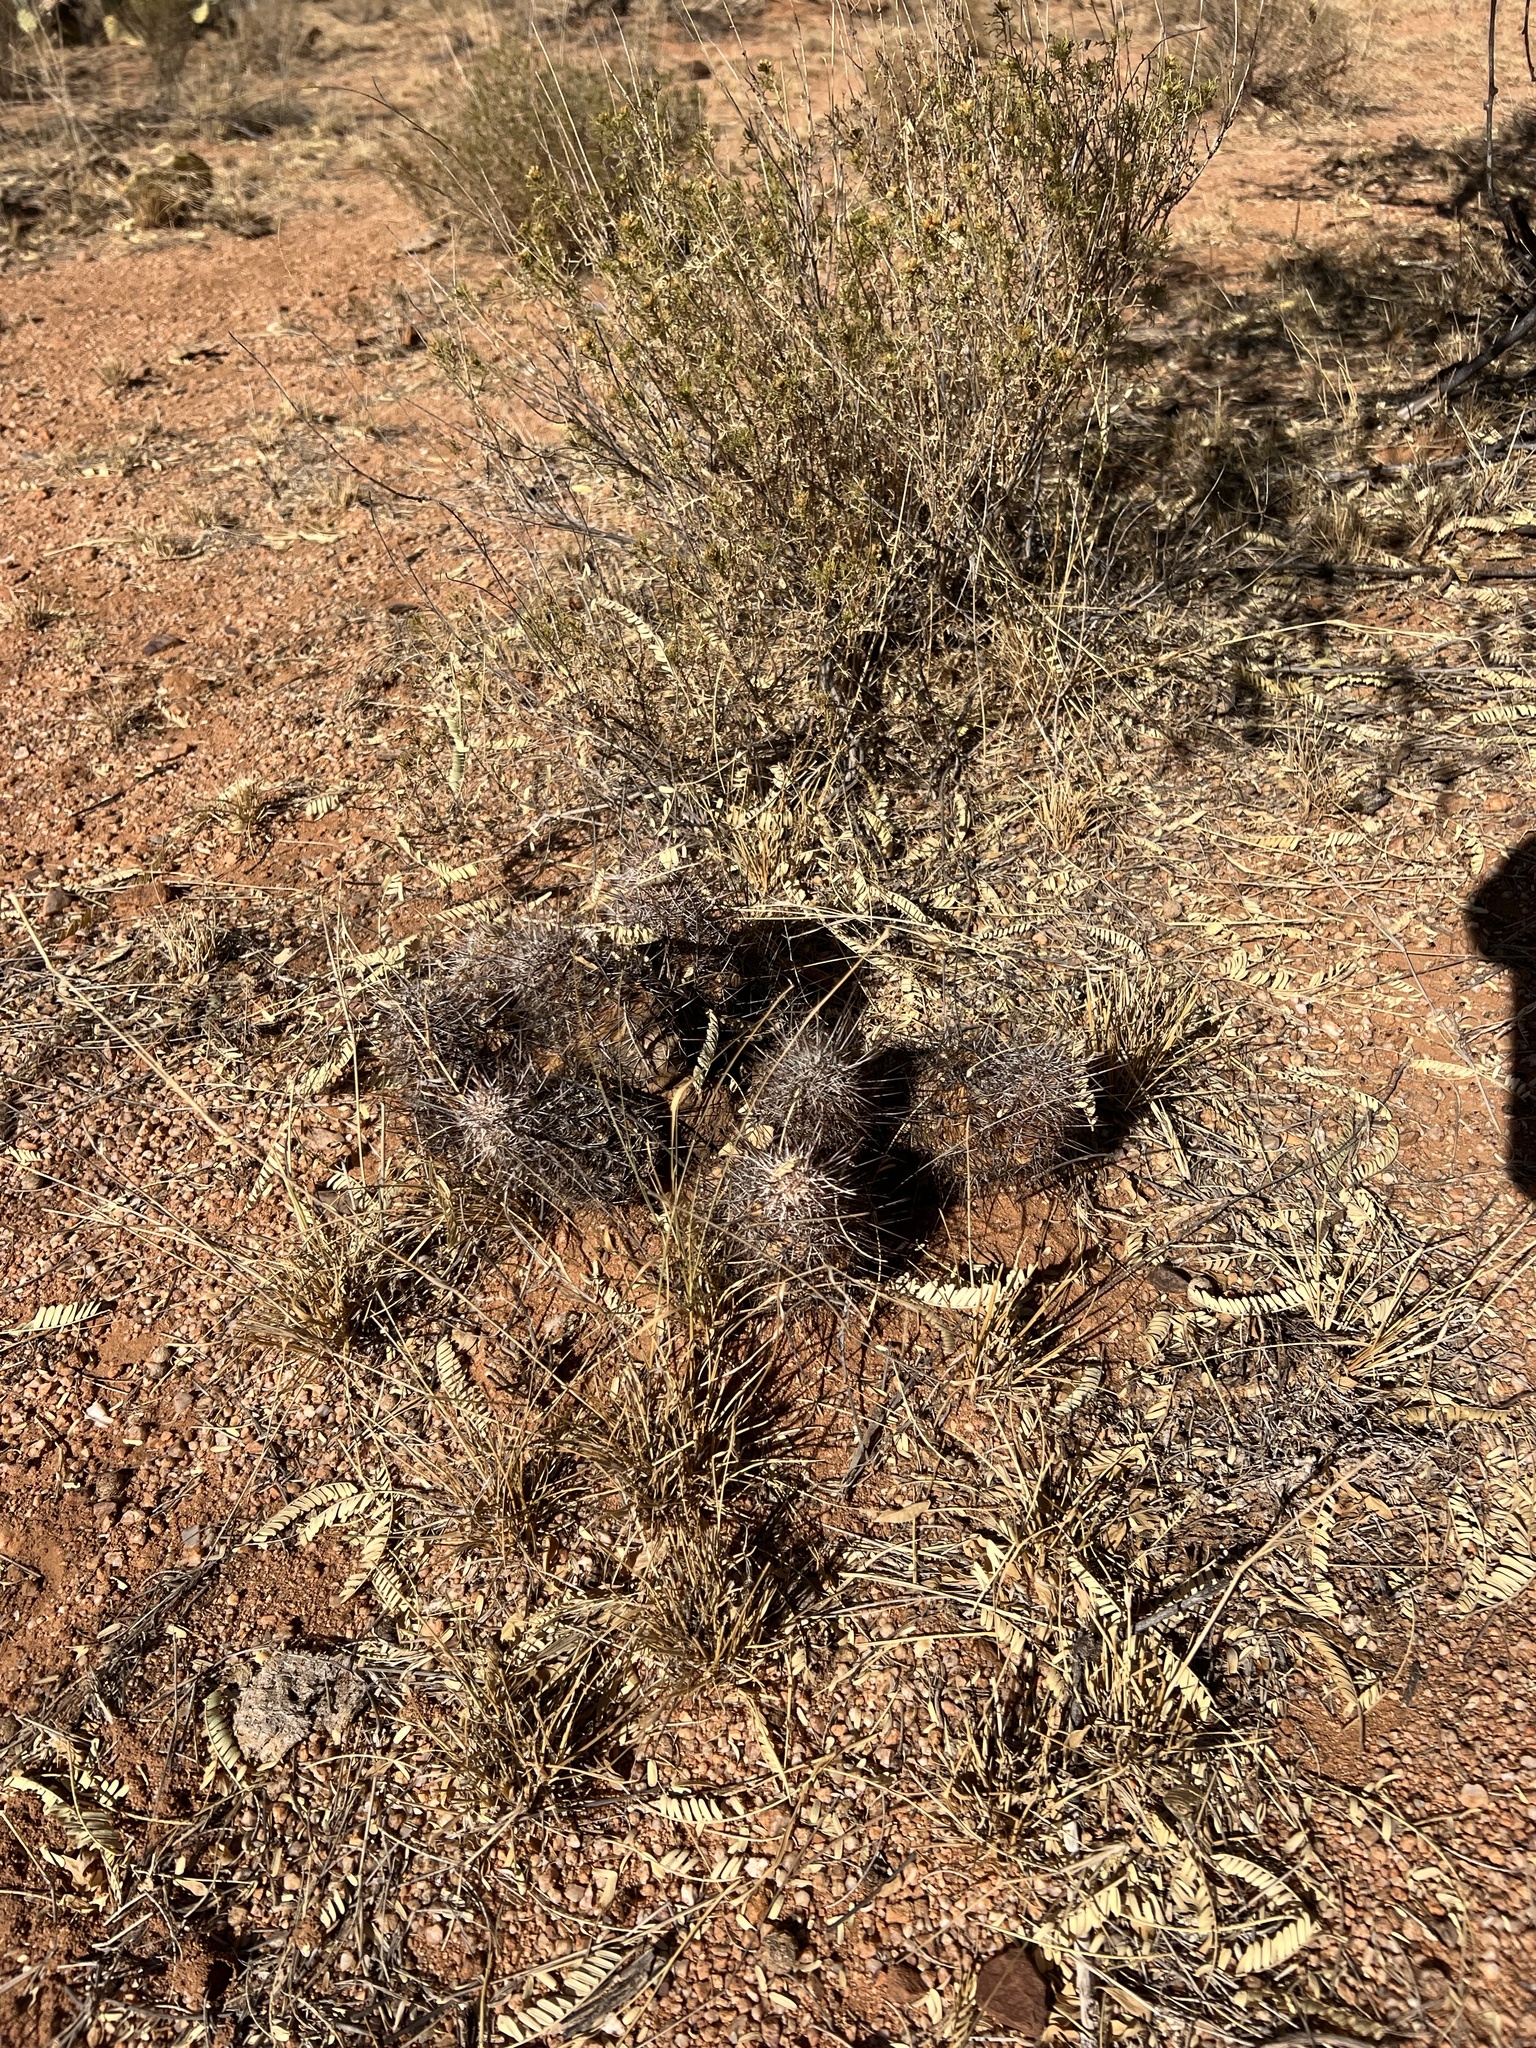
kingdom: Plantae
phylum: Tracheophyta
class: Magnoliopsida
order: Caryophyllales
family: Cactaceae
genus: Echinocereus
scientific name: Echinocereus fasciculatus
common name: Bundle hedgehog
